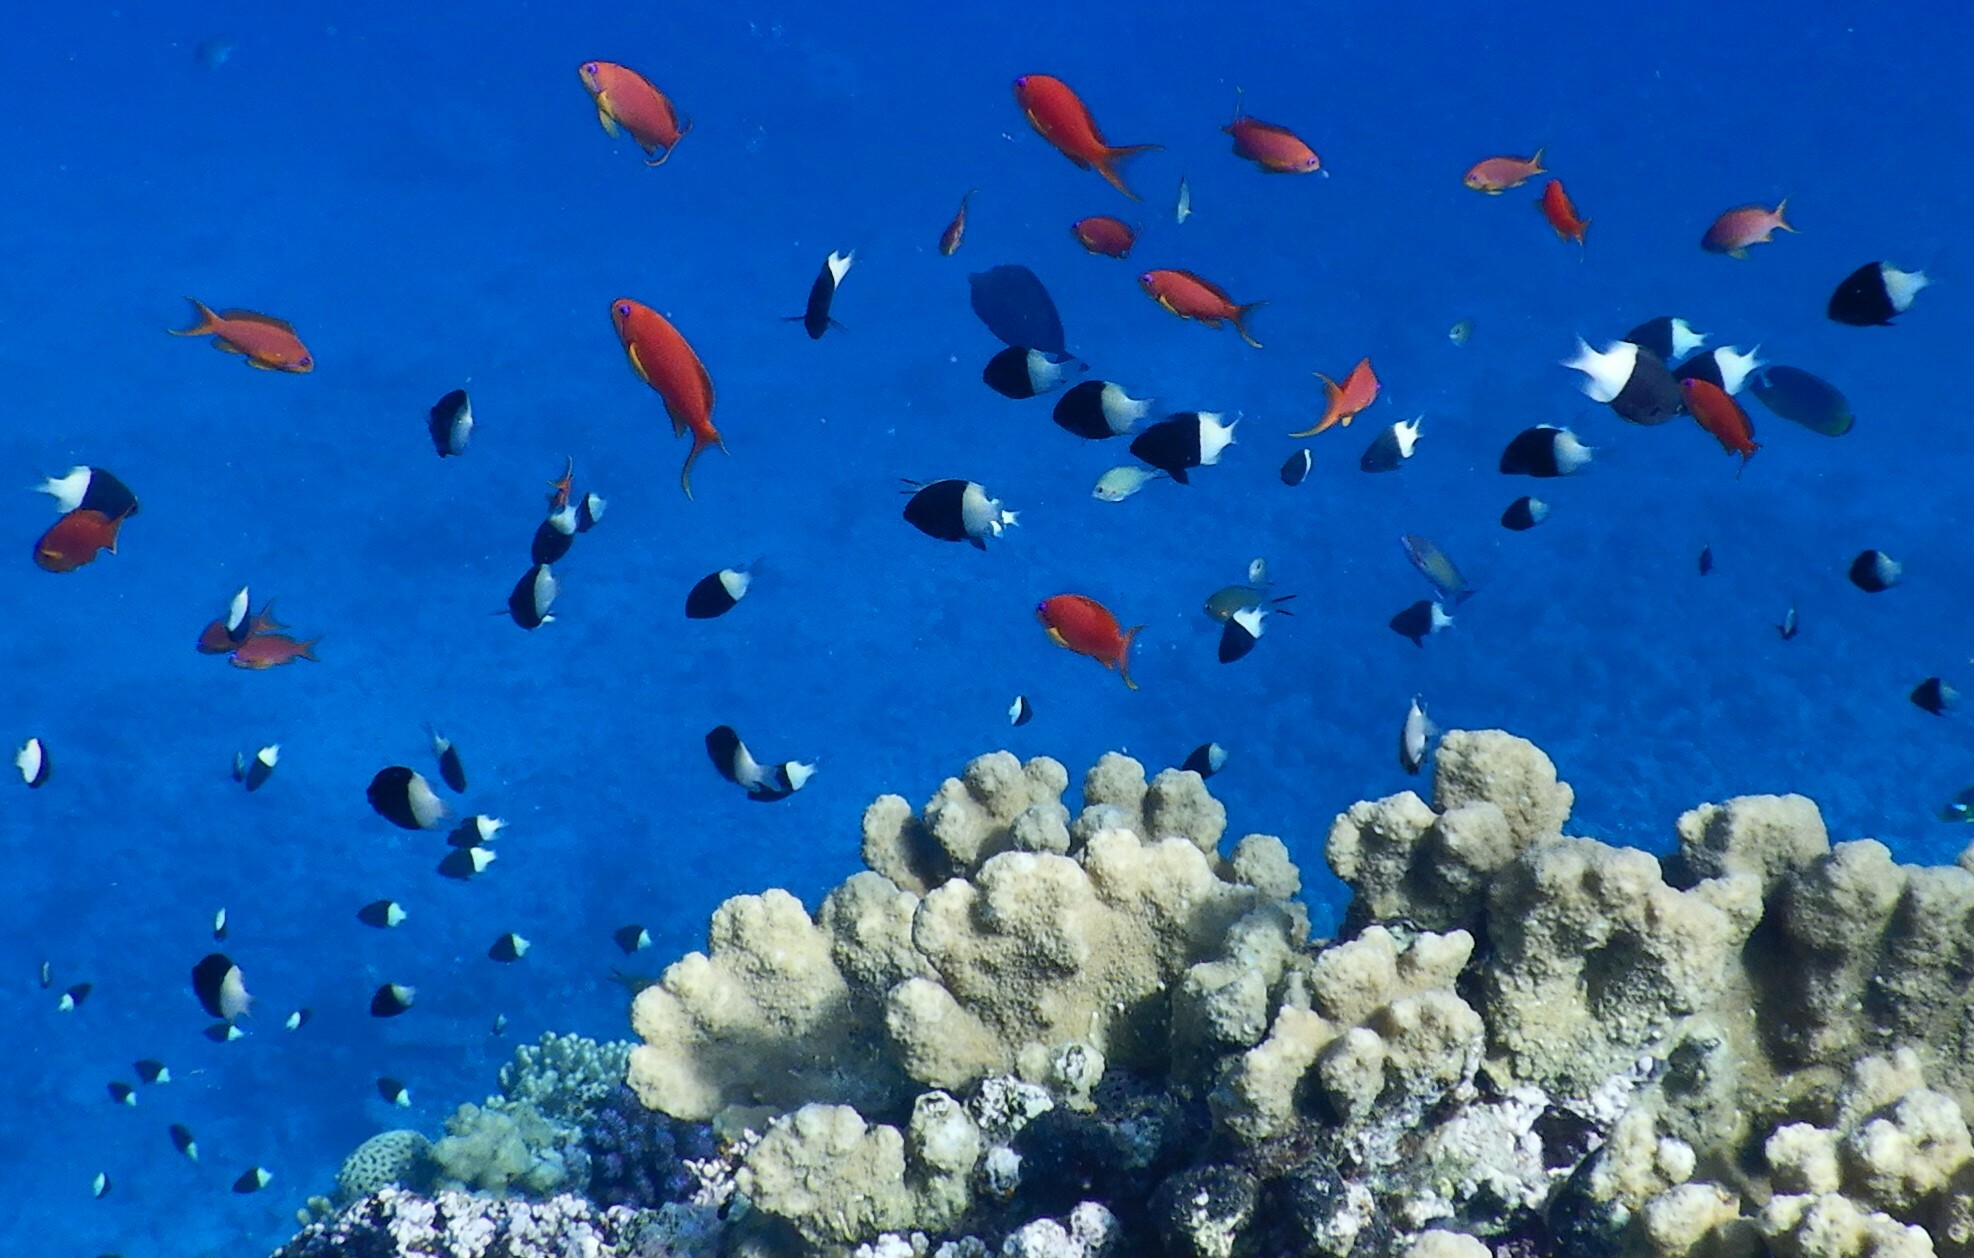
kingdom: Animalia
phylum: Chordata
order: Perciformes
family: Pomacentridae
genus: Chromis
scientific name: Chromis dimidiata
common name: Half-and-half chromis
